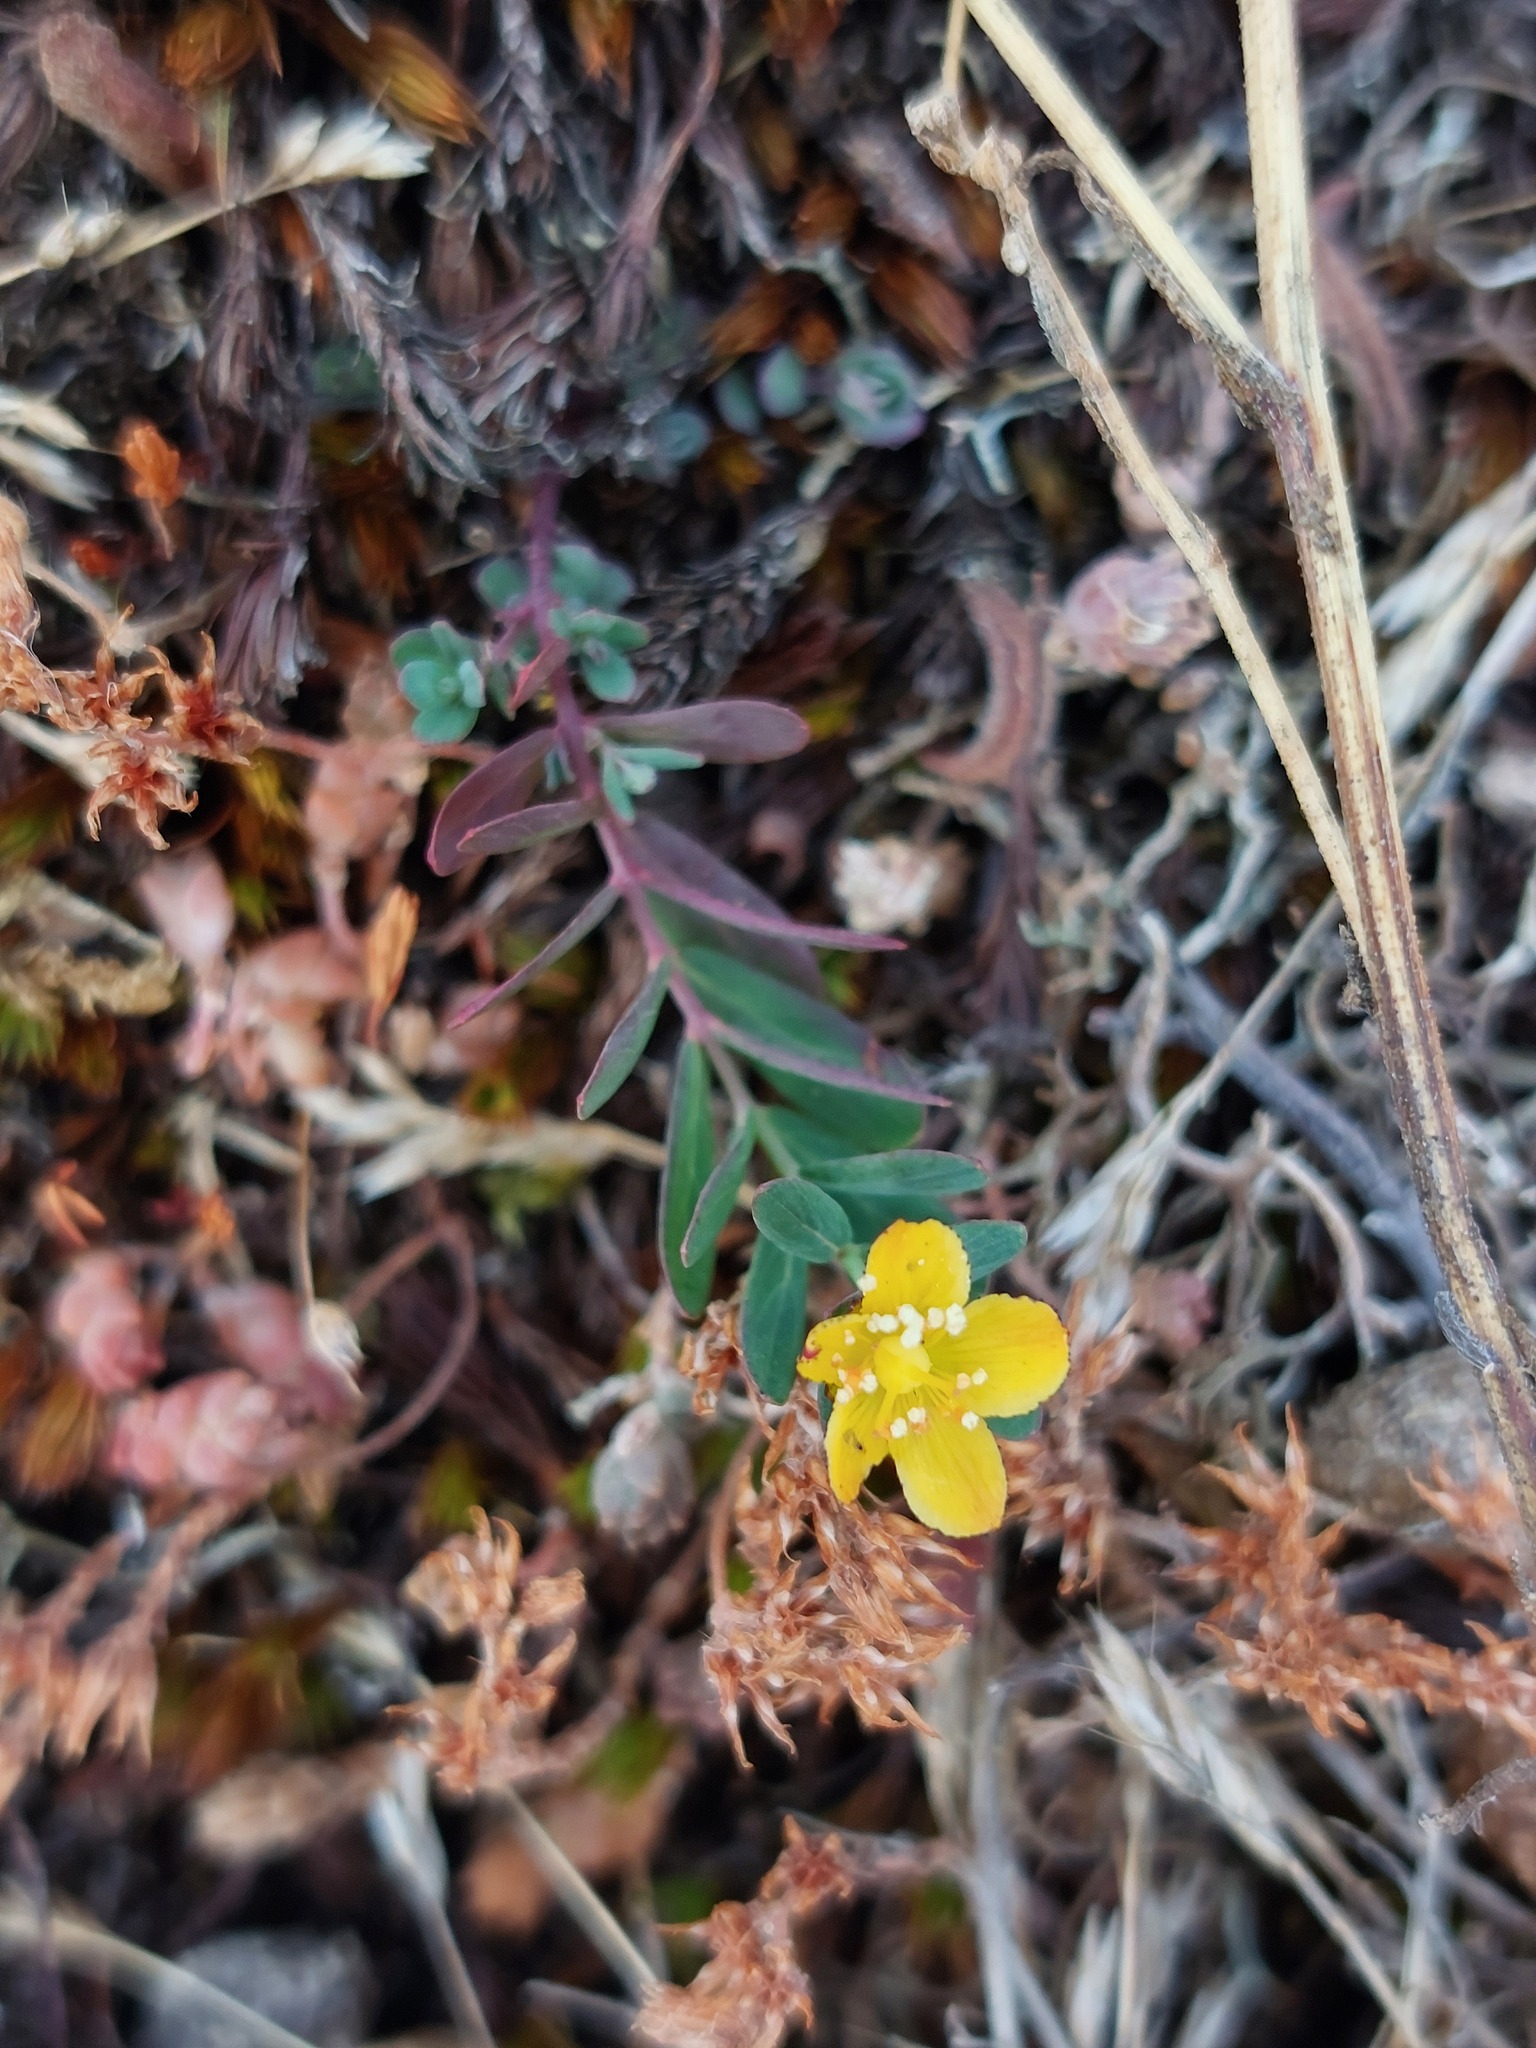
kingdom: Plantae
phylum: Tracheophyta
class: Magnoliopsida
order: Malpighiales
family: Hypericaceae
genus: Hypericum
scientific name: Hypericum linariifolium
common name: Toadflax-leaved st. john's-wort
